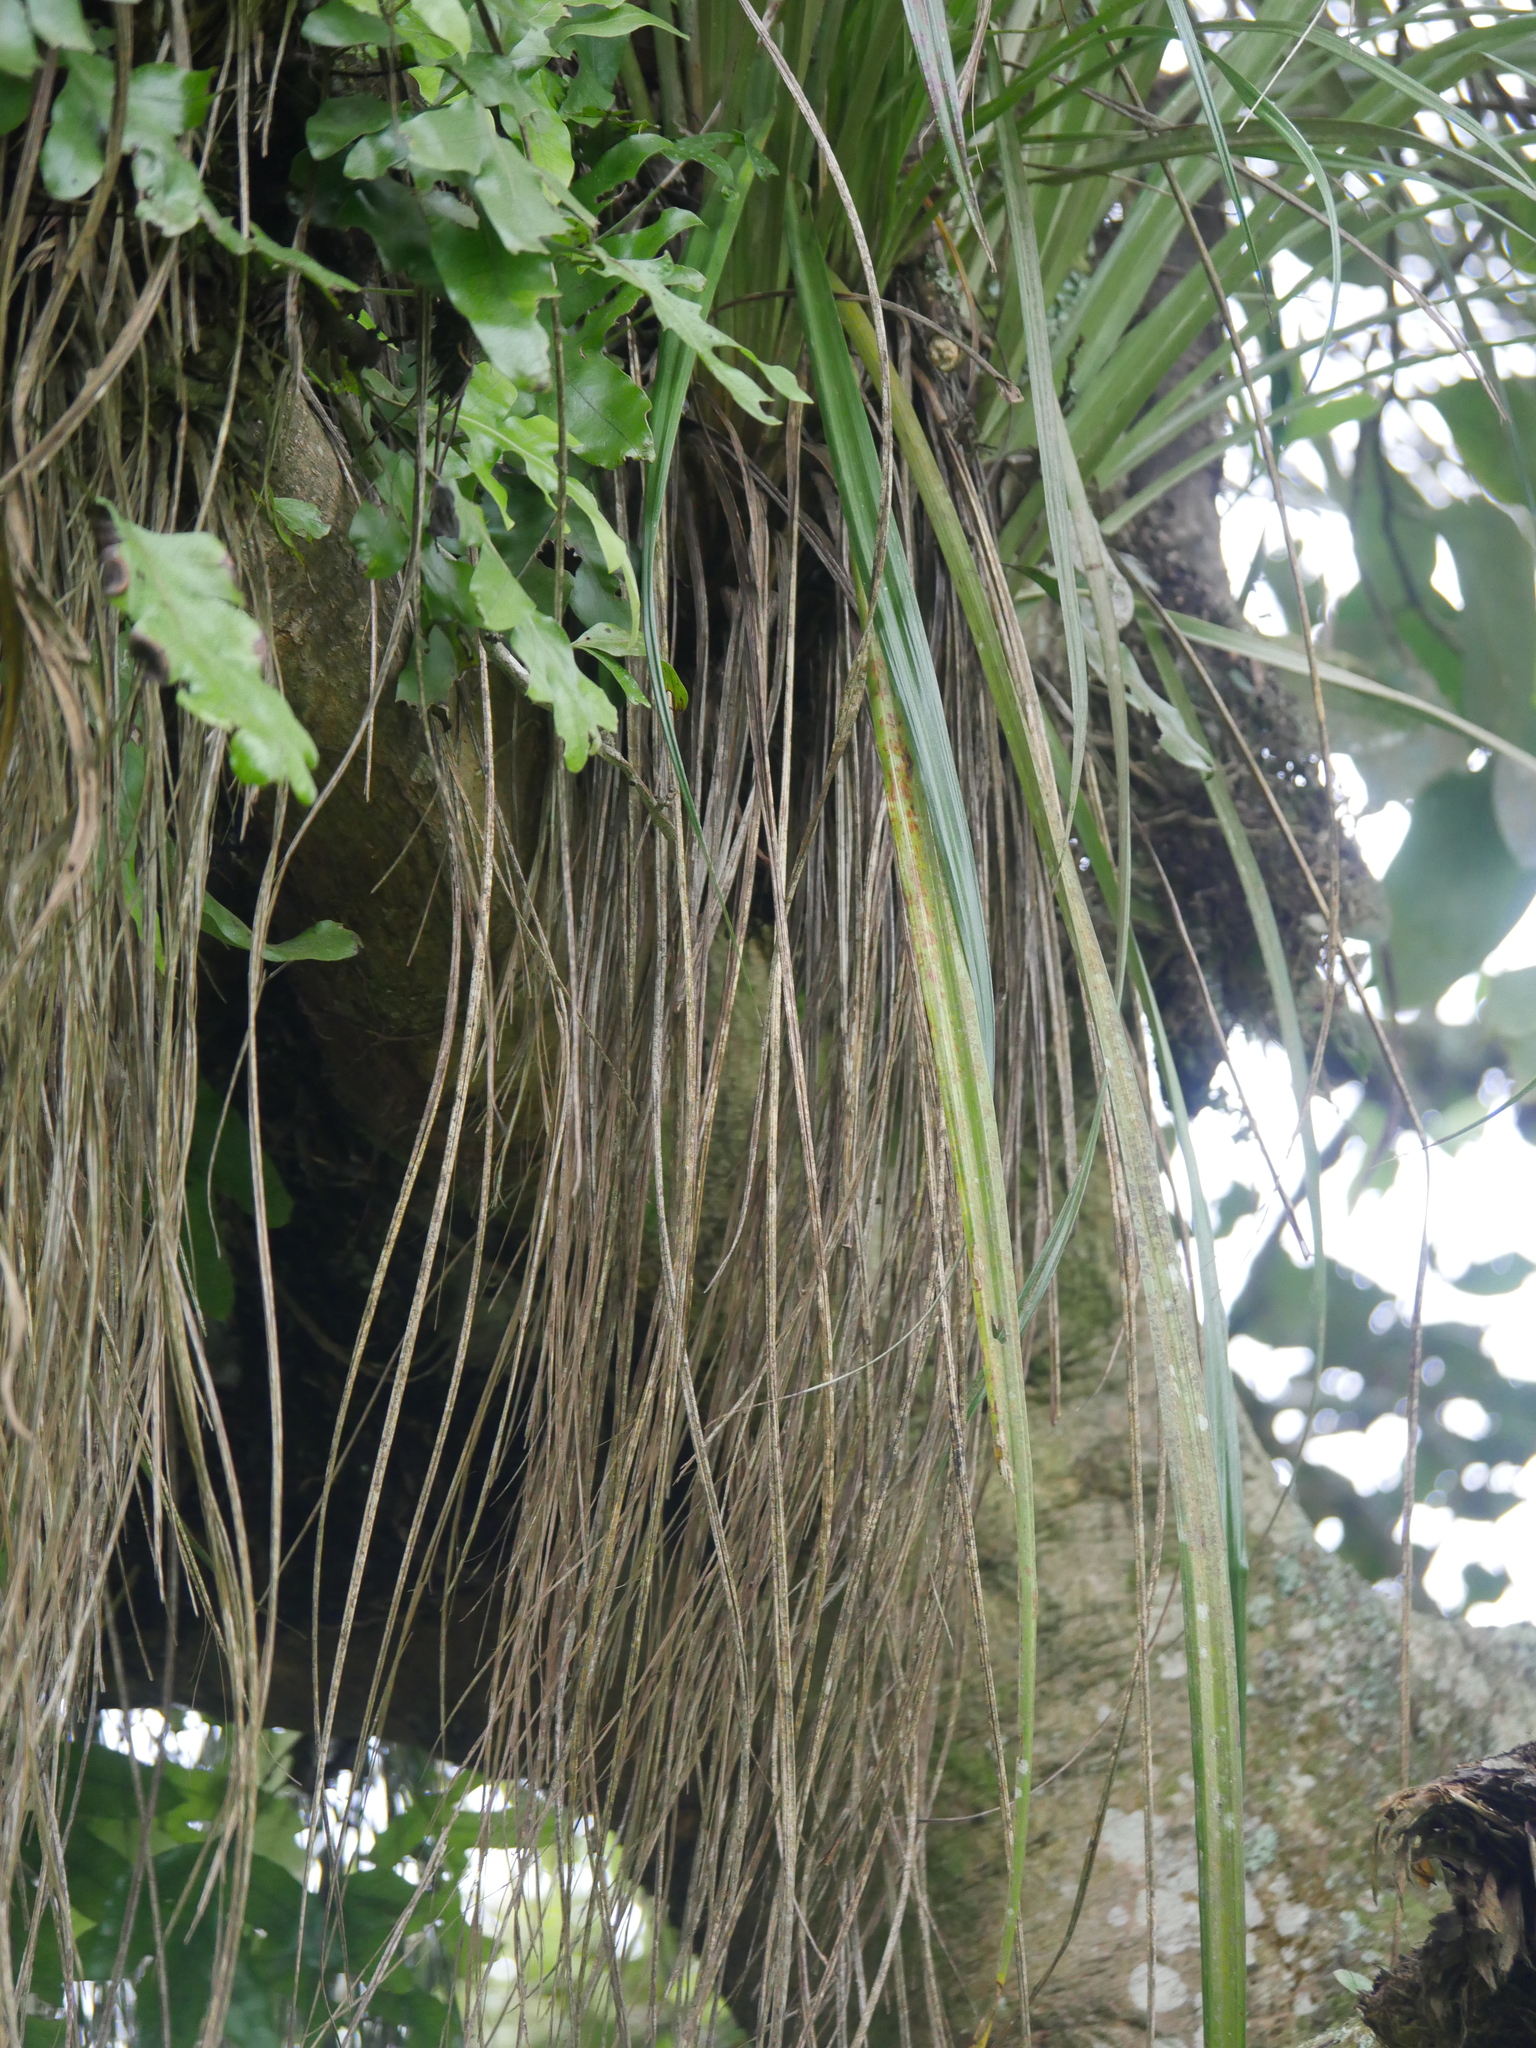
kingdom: Plantae
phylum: Tracheophyta
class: Liliopsida
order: Asparagales
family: Asteliaceae
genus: Astelia
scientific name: Astelia solandri
